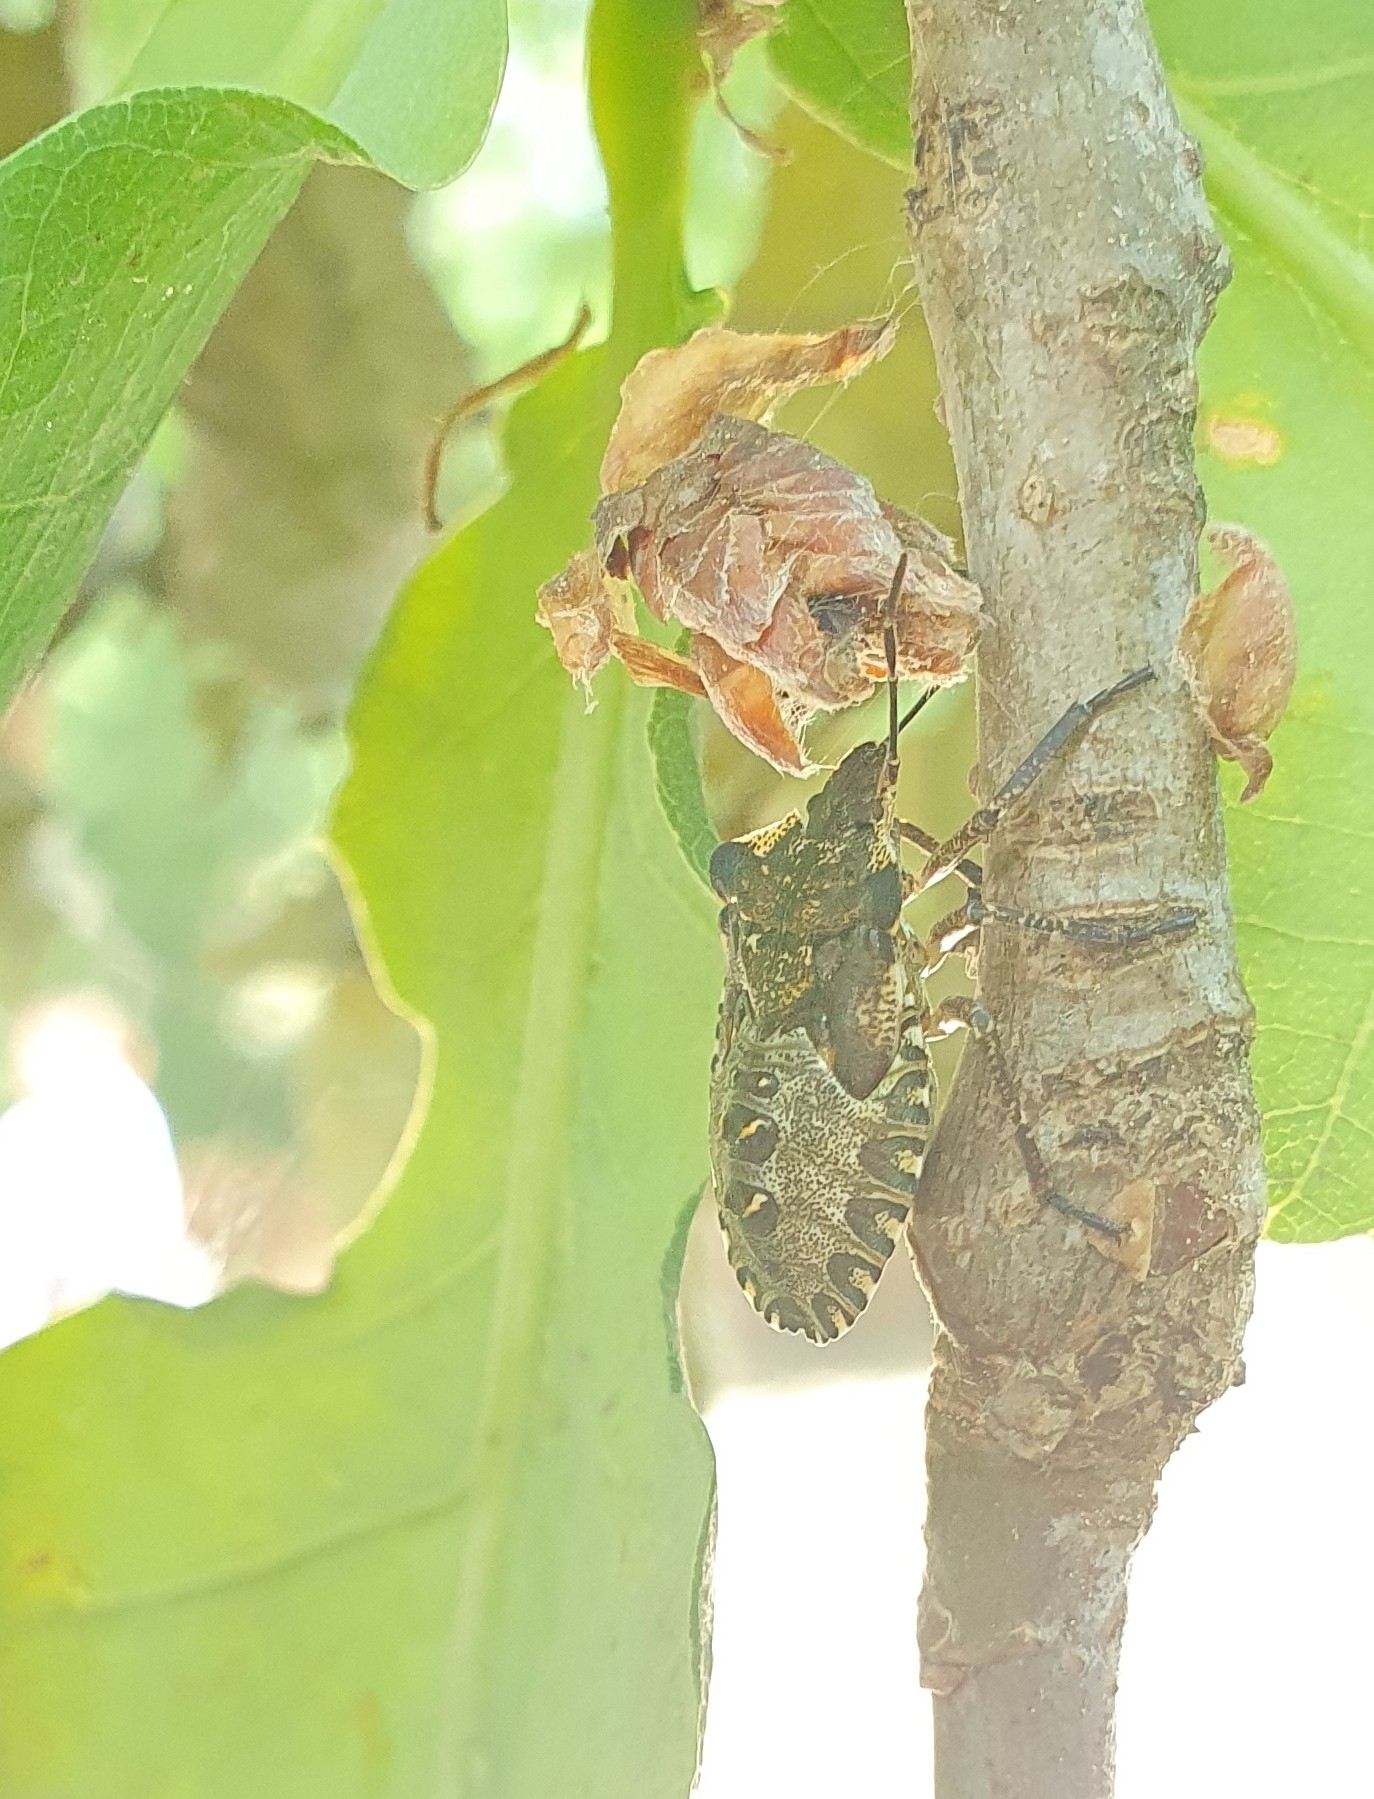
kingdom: Animalia
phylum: Arthropoda
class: Insecta
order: Hemiptera
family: Pentatomidae
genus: Pentatoma
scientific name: Pentatoma rufipes
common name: Forest bug
